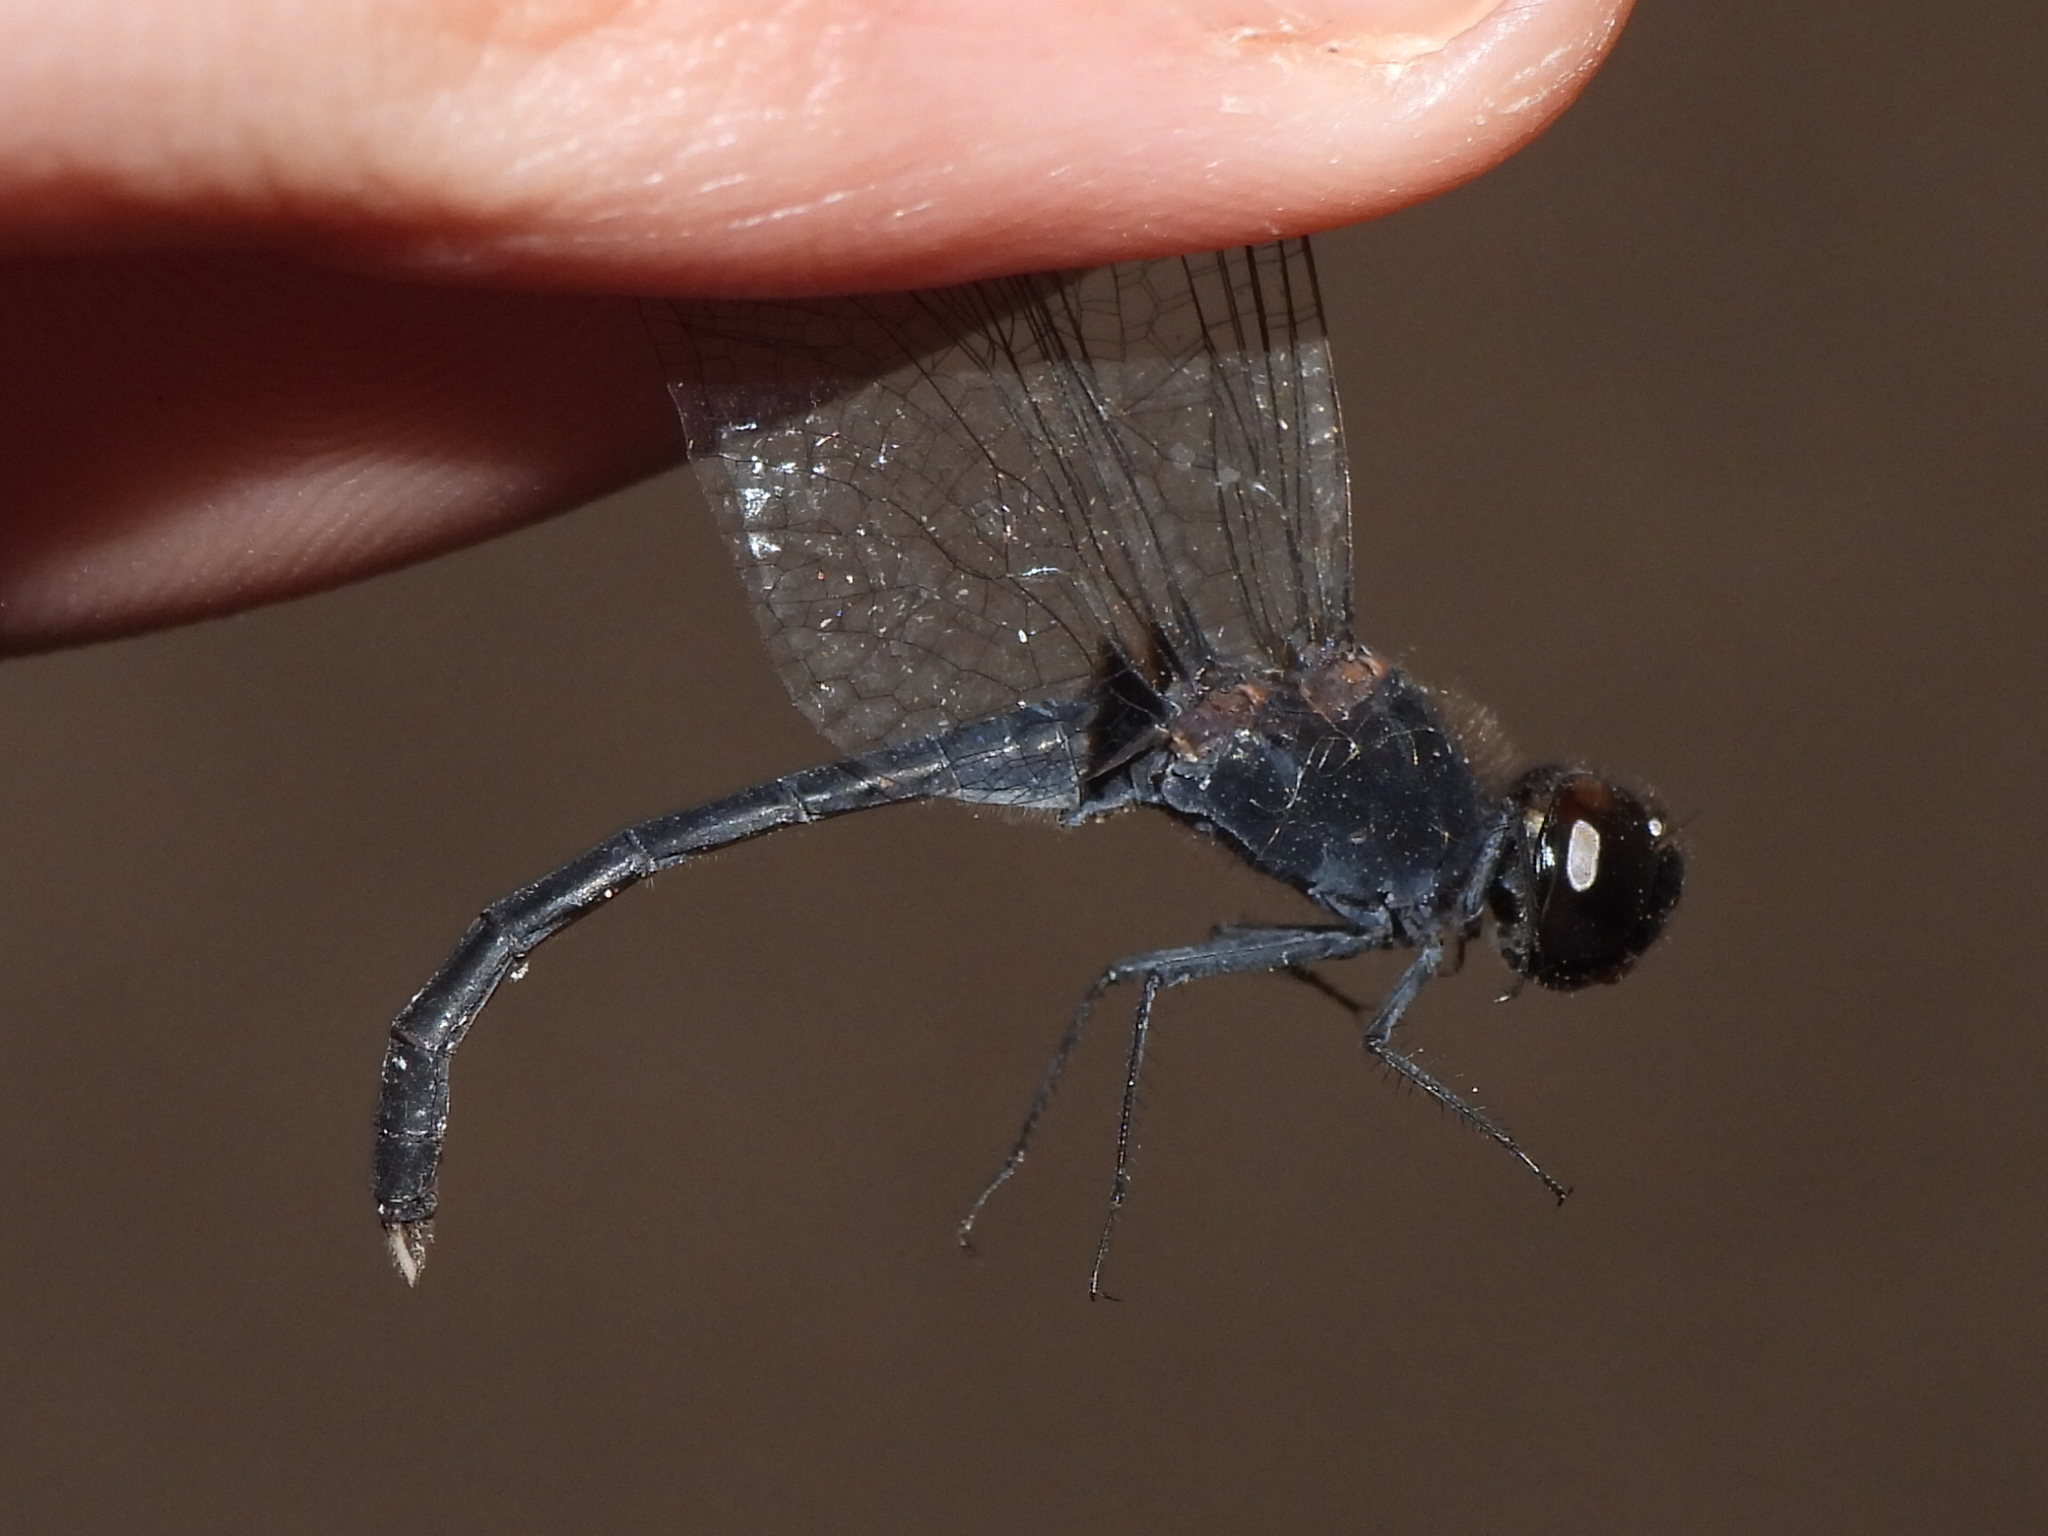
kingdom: Animalia
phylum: Arthropoda
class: Insecta
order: Odonata
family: Libellulidae
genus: Diplacodes
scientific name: Diplacodes lefebvrii
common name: Black percher
